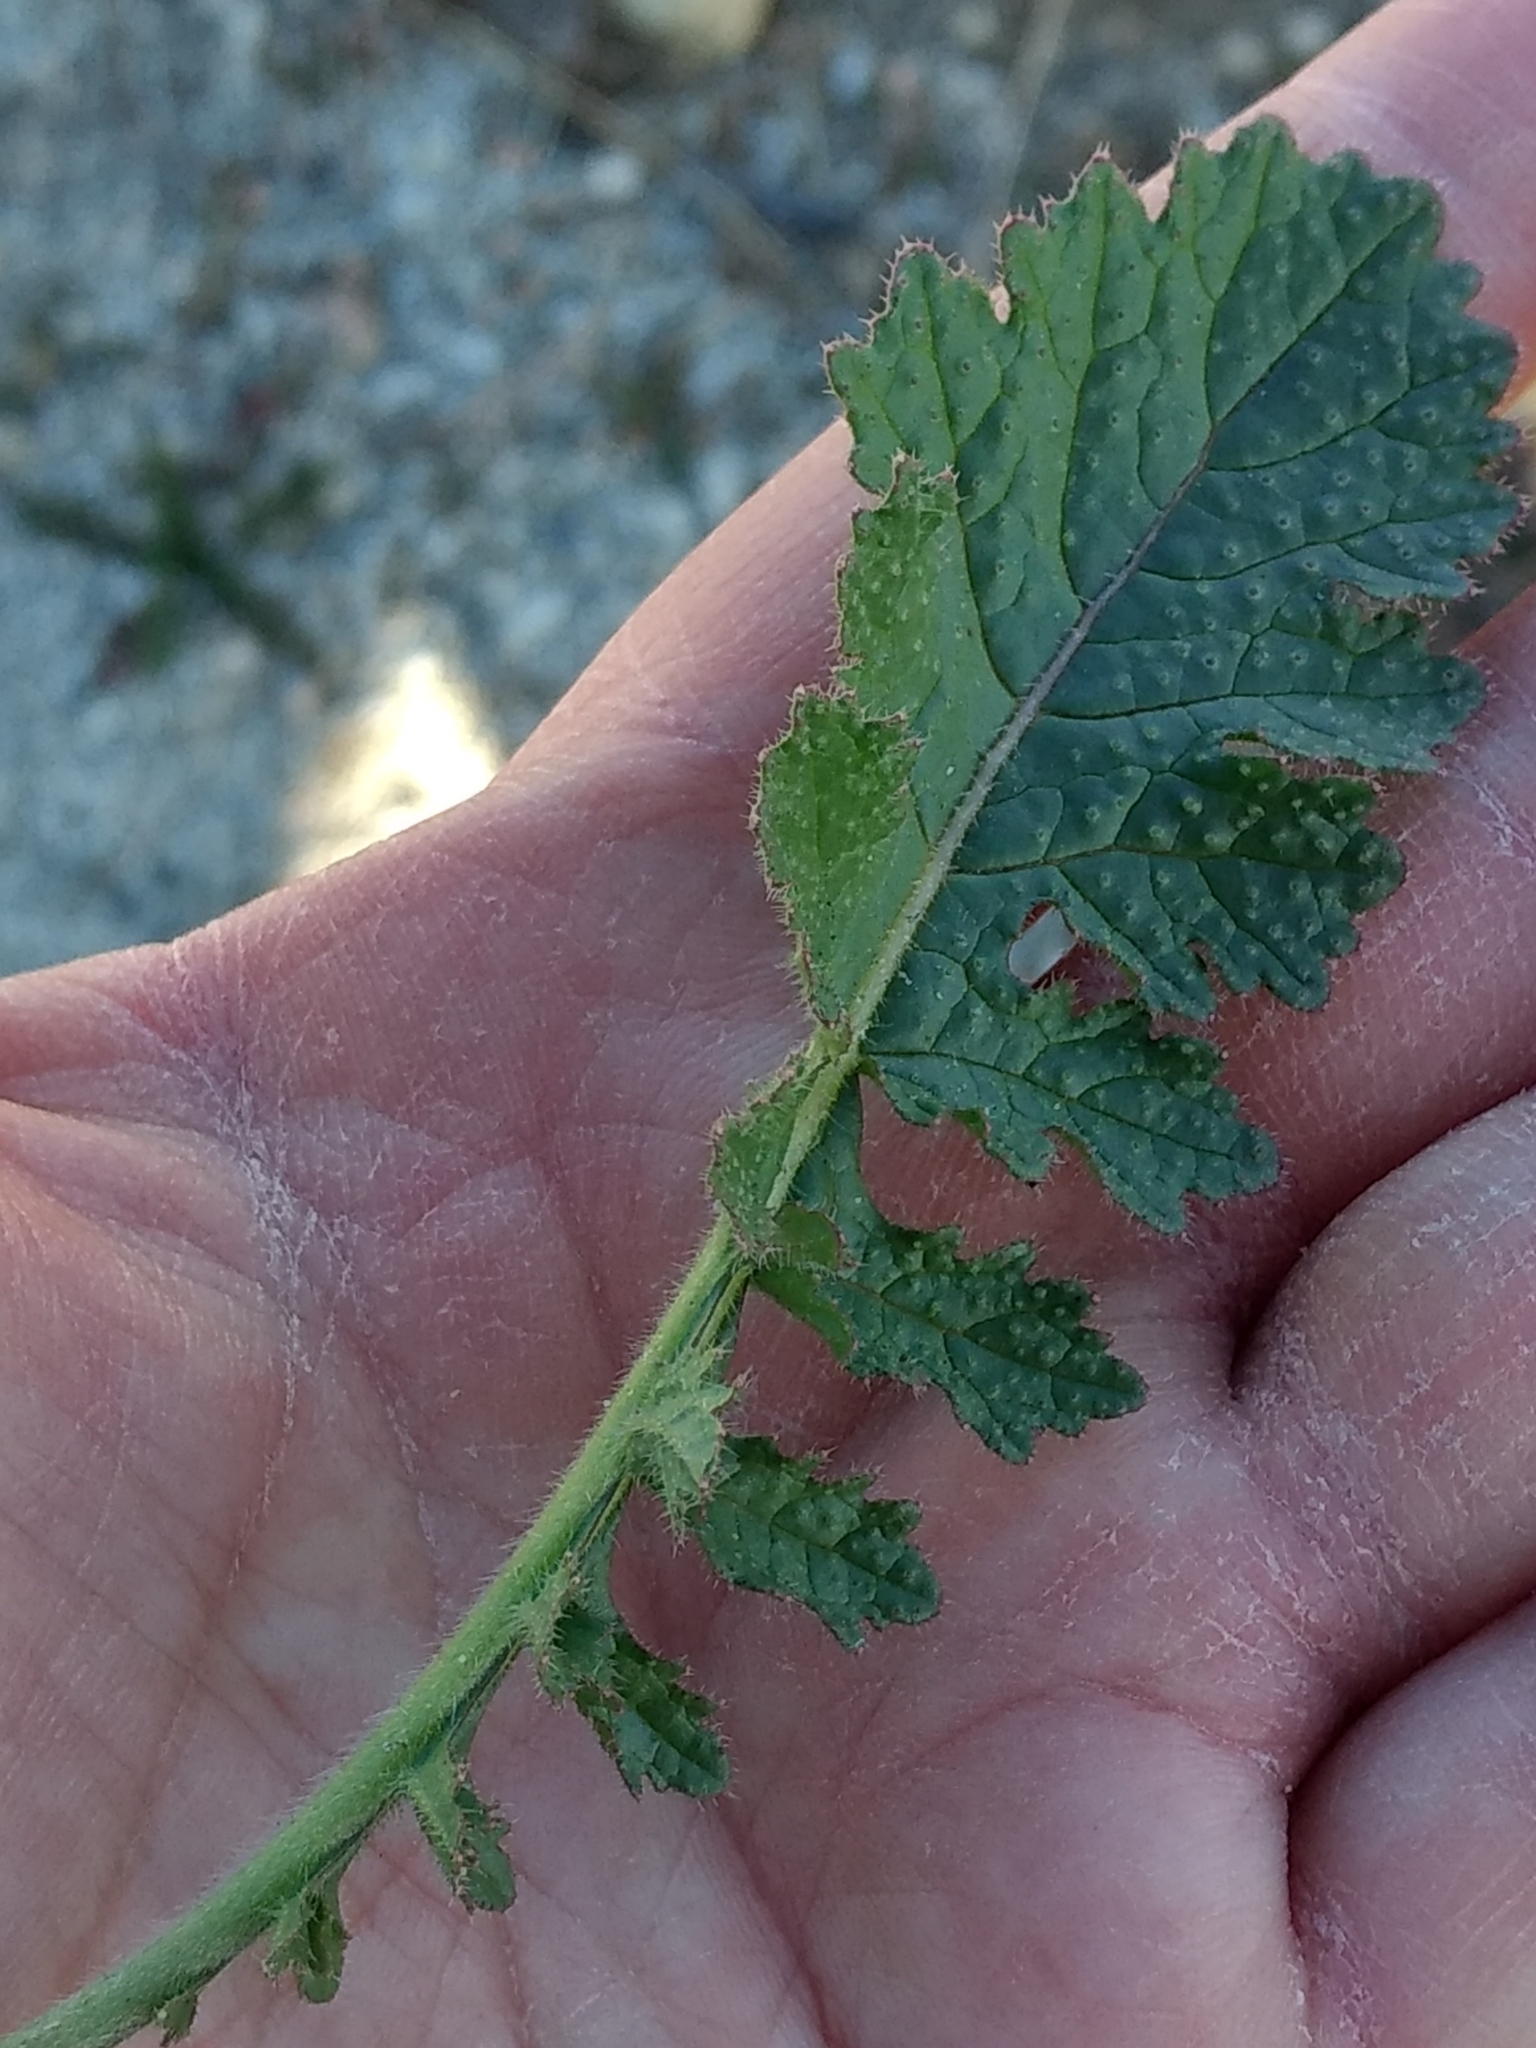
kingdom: Plantae
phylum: Tracheophyta
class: Magnoliopsida
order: Geraniales
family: Geraniaceae
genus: Erodium
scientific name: Erodium cicutarium
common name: Common stork's-bill
